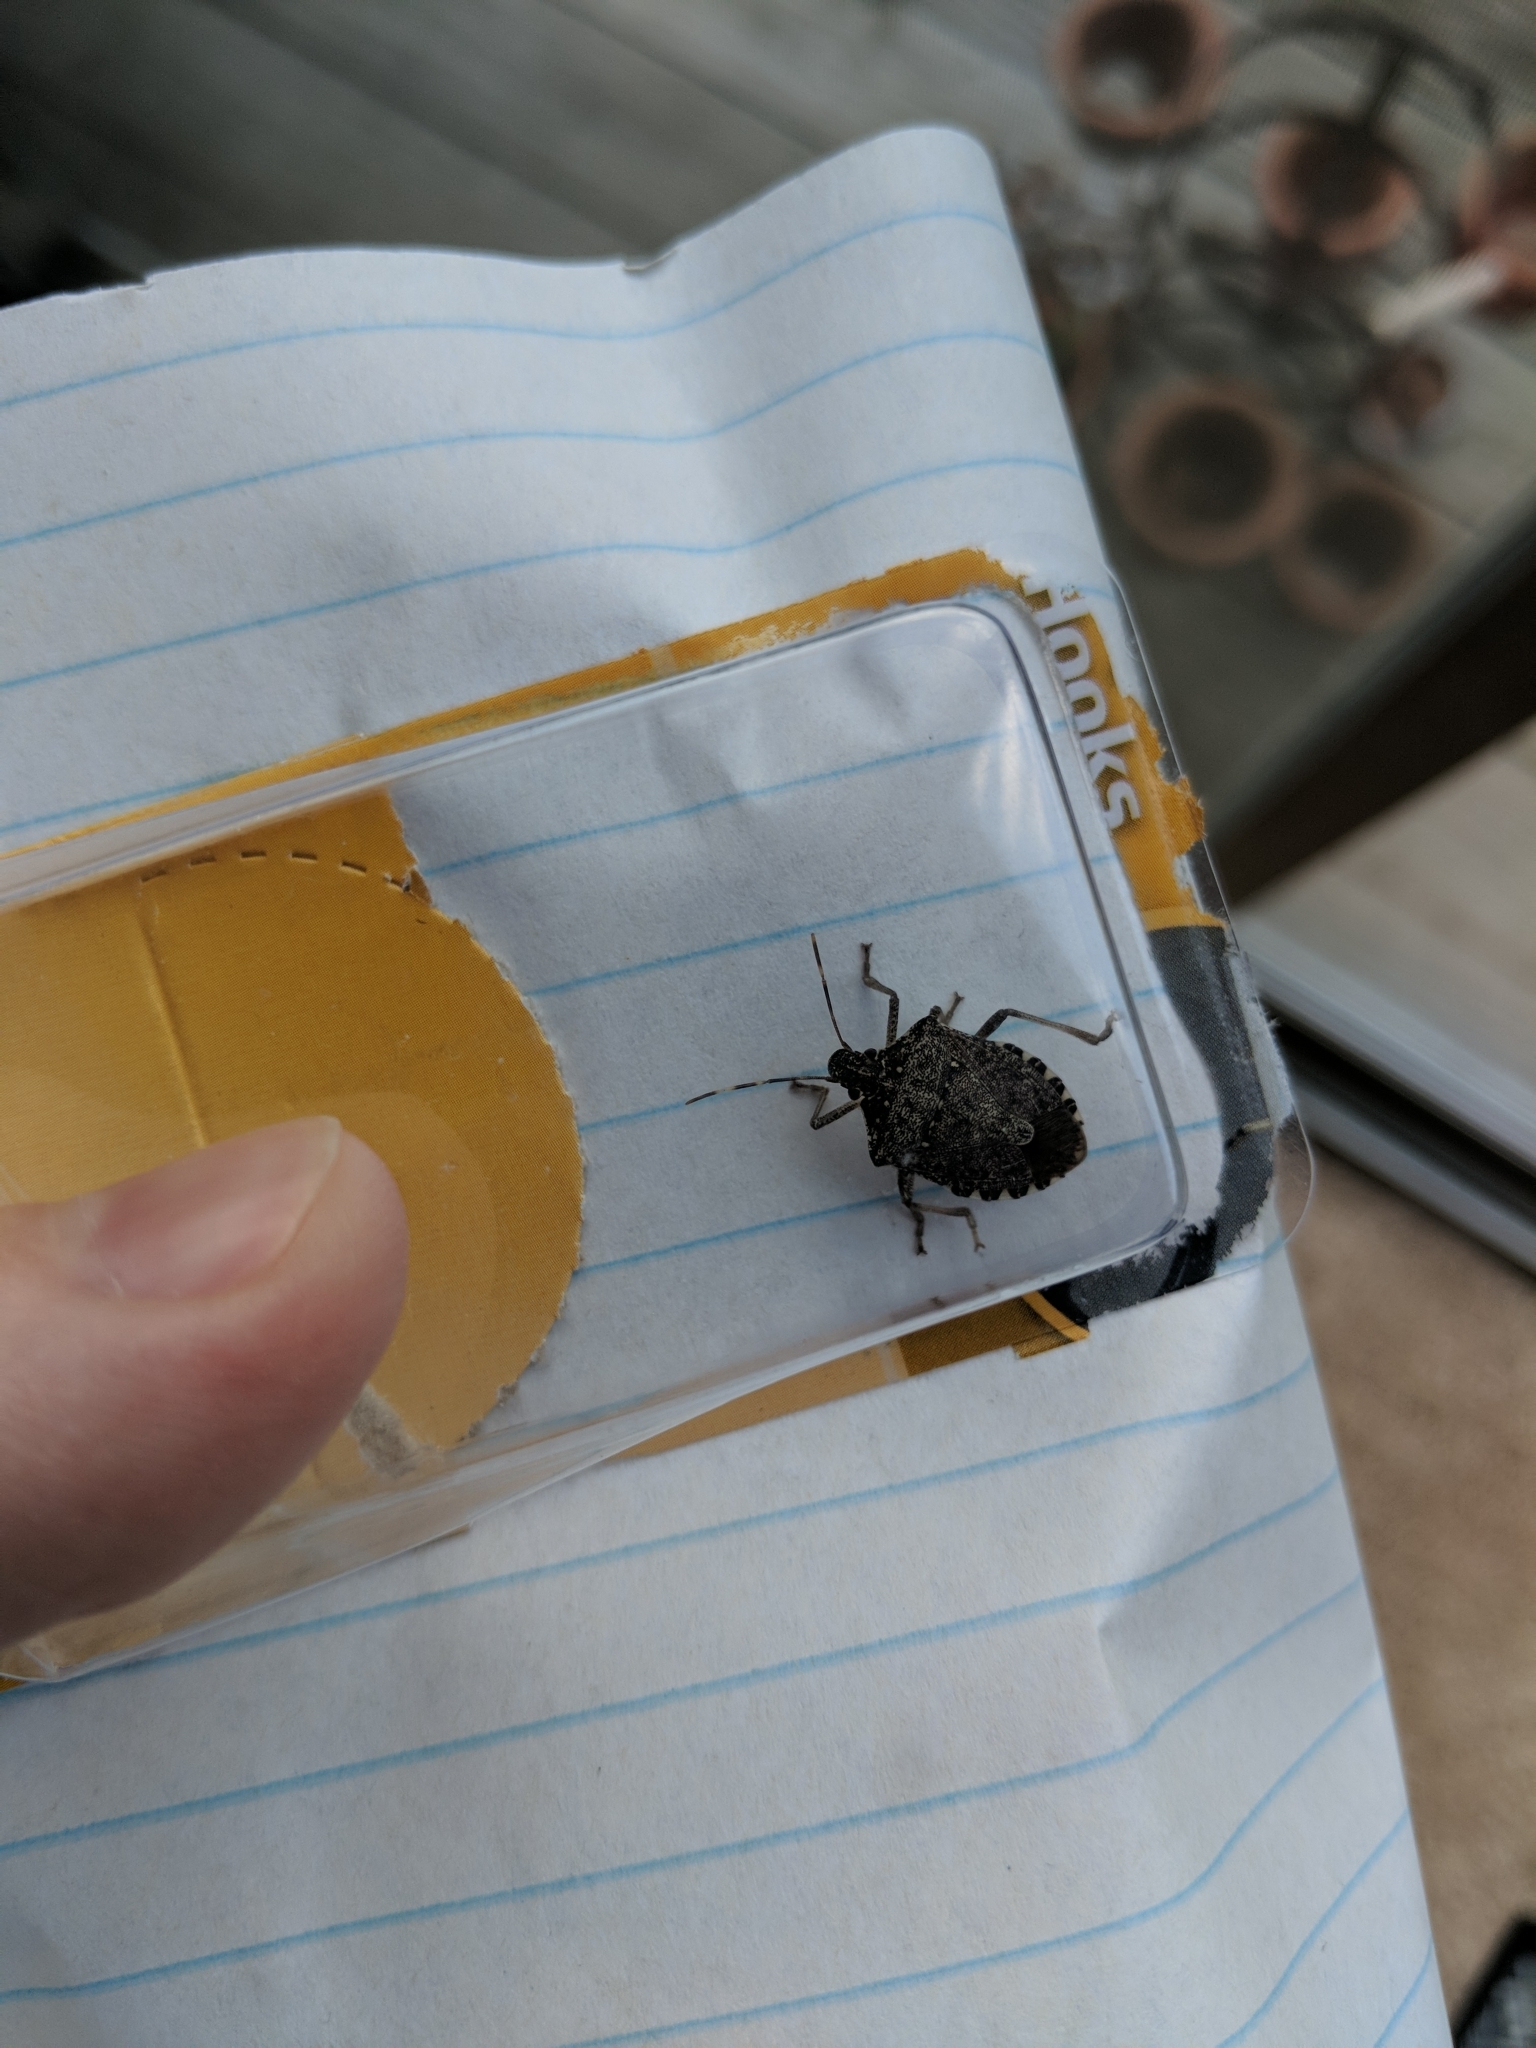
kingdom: Animalia
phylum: Arthropoda
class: Insecta
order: Hemiptera
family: Pentatomidae
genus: Halyomorpha
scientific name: Halyomorpha halys
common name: Brown marmorated stink bug
